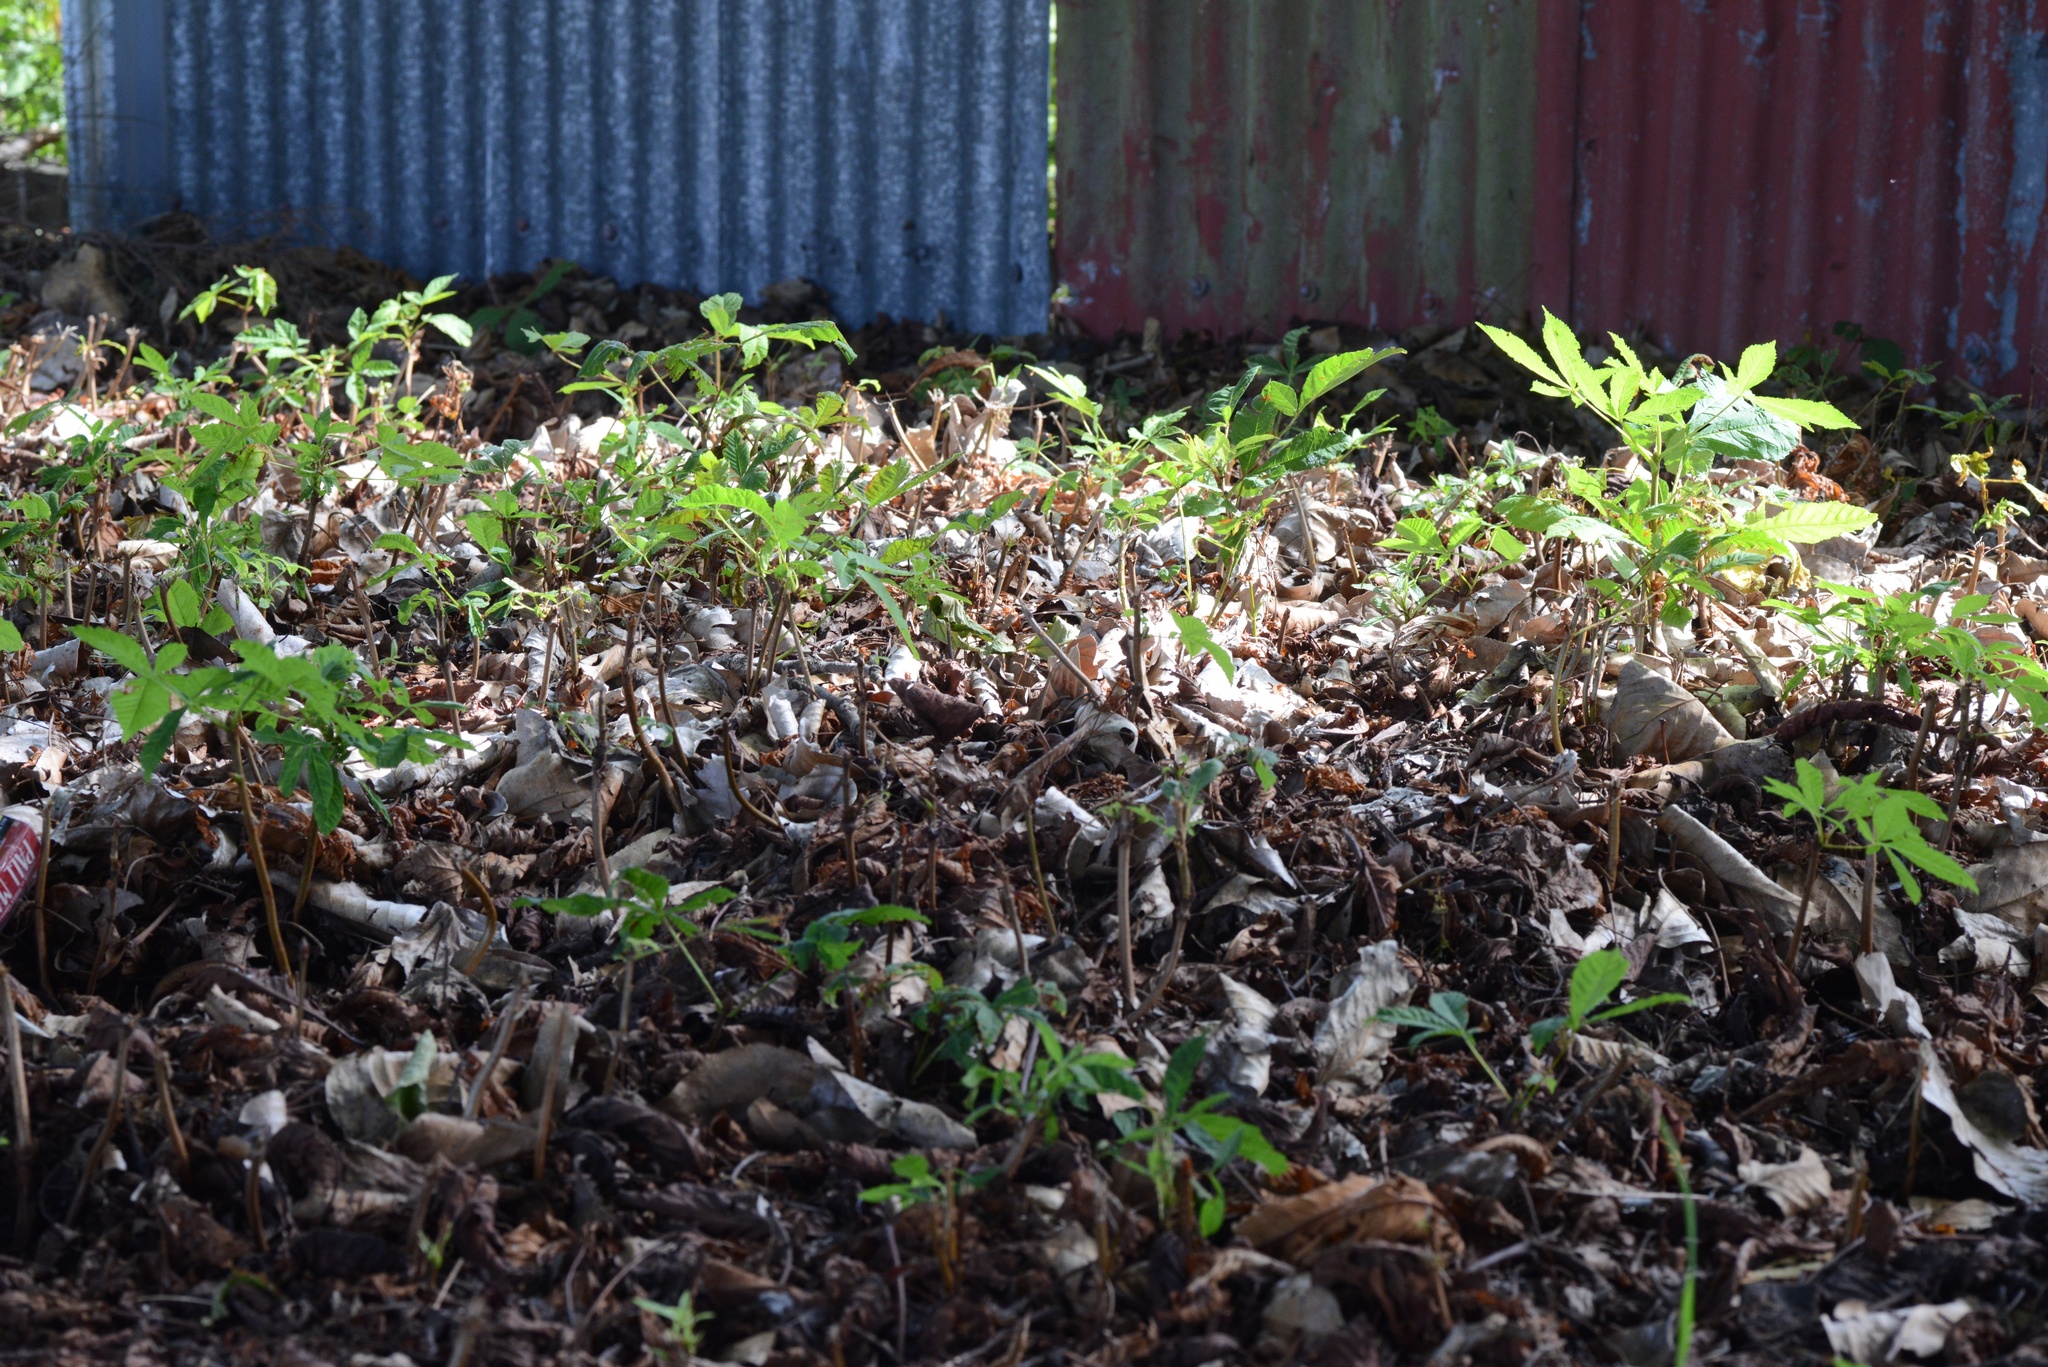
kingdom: Plantae
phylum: Tracheophyta
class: Magnoliopsida
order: Sapindales
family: Sapindaceae
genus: Aesculus
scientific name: Aesculus hippocastanum
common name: Horse-chestnut
